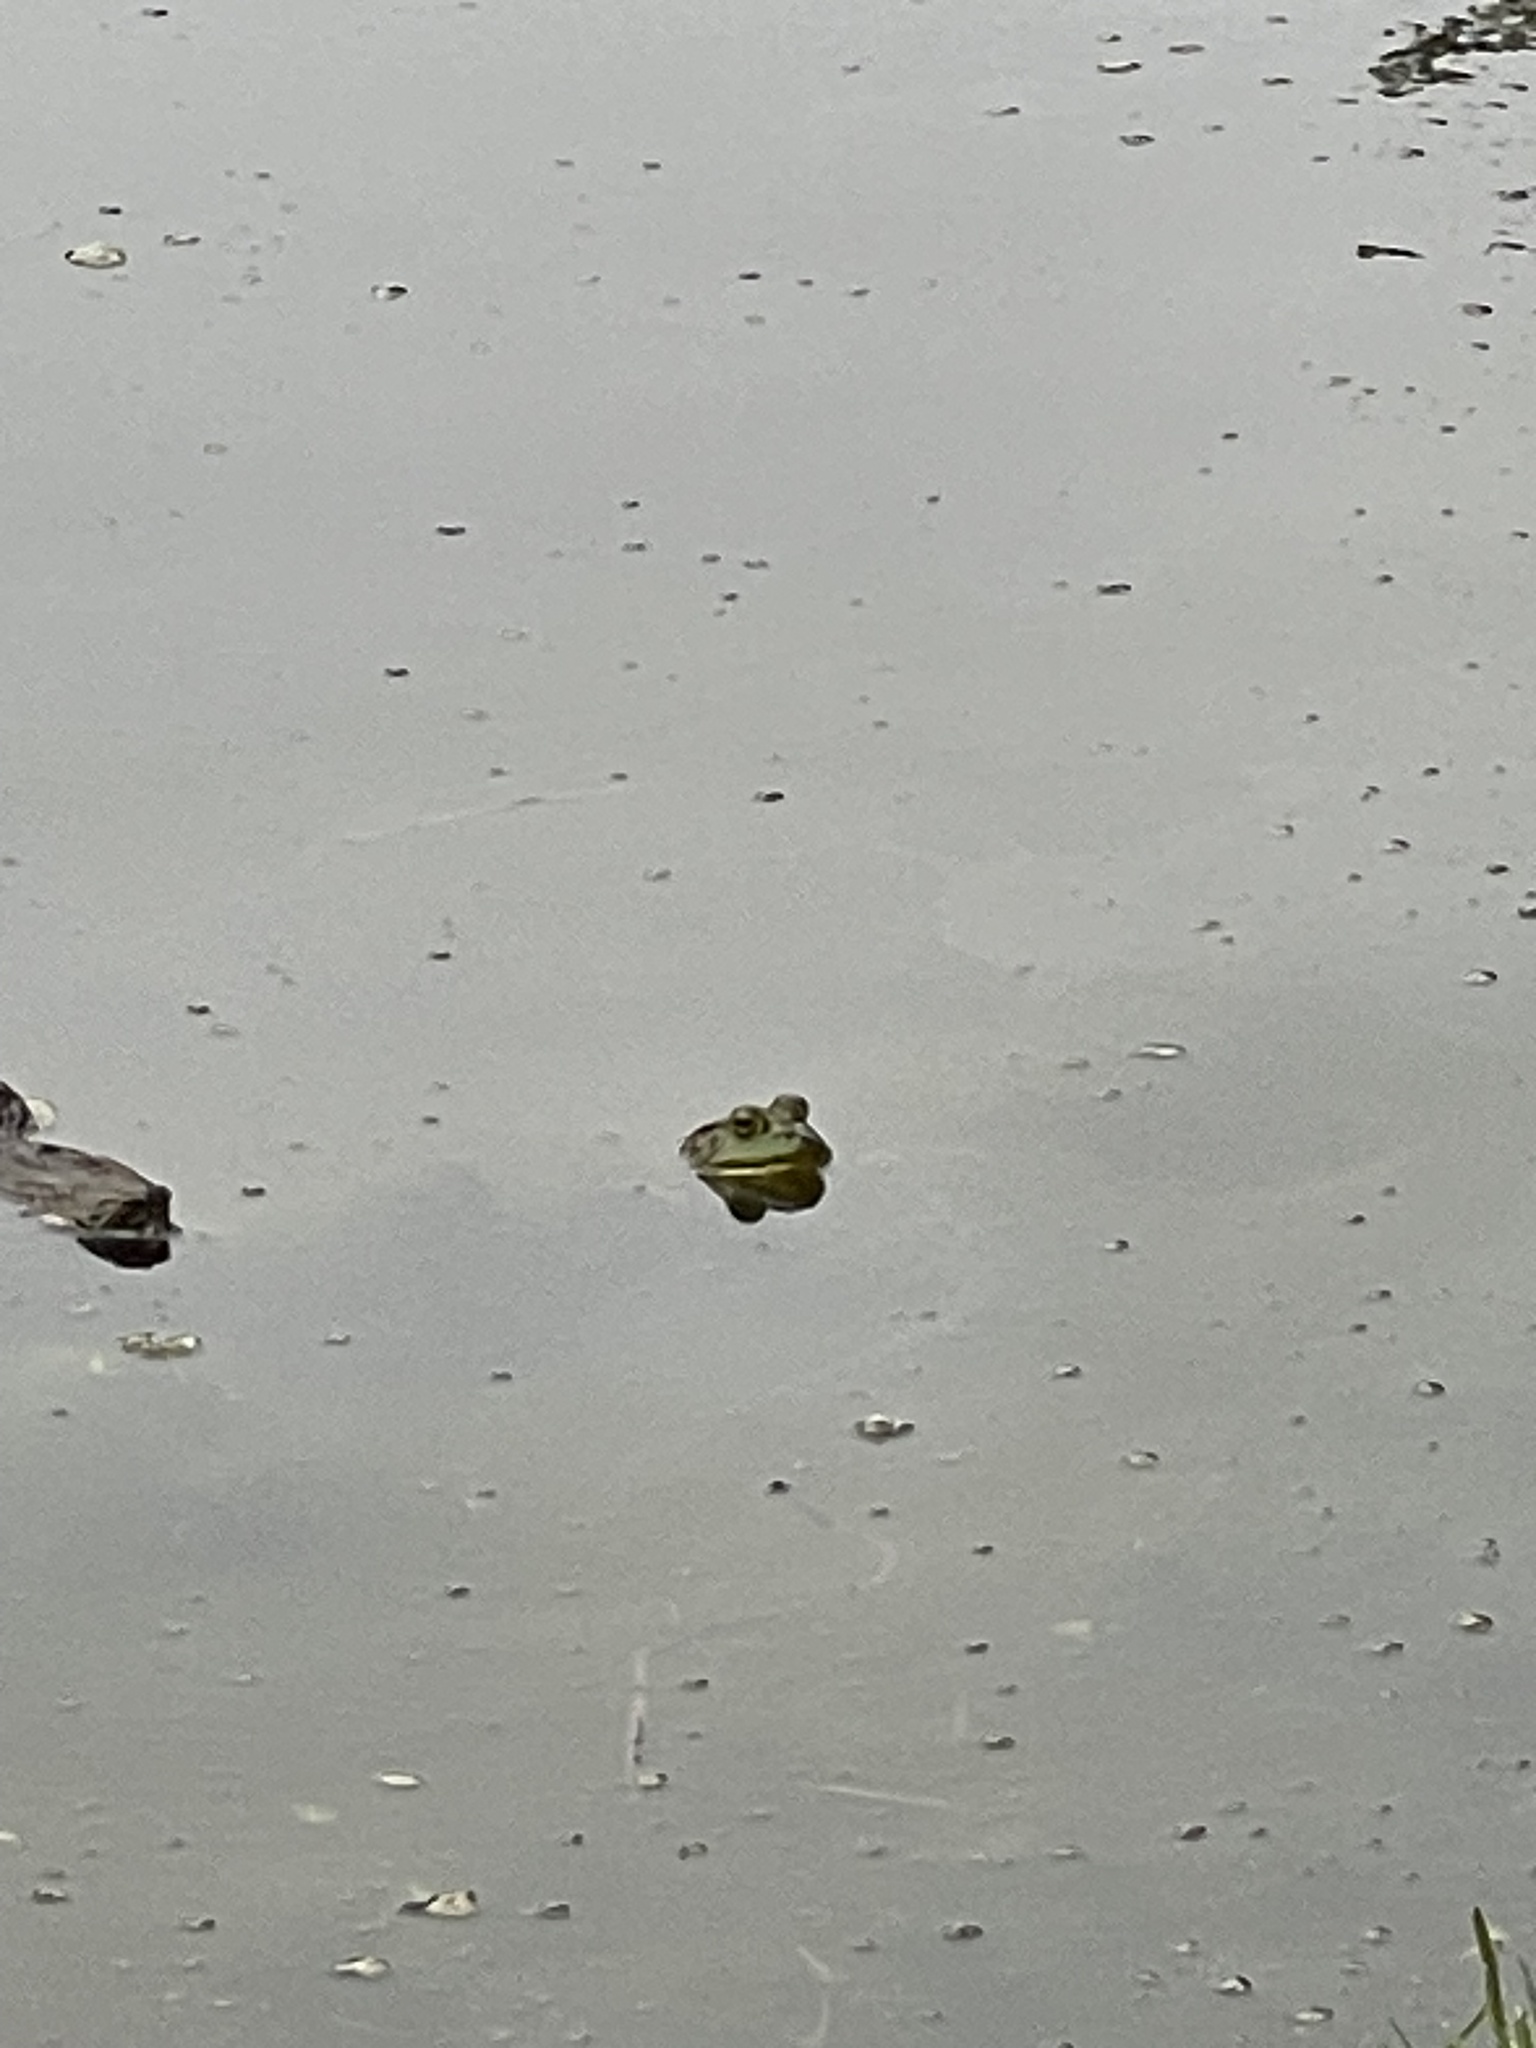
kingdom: Animalia
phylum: Chordata
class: Amphibia
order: Anura
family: Ranidae
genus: Lithobates
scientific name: Lithobates catesbeianus
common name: American bullfrog
